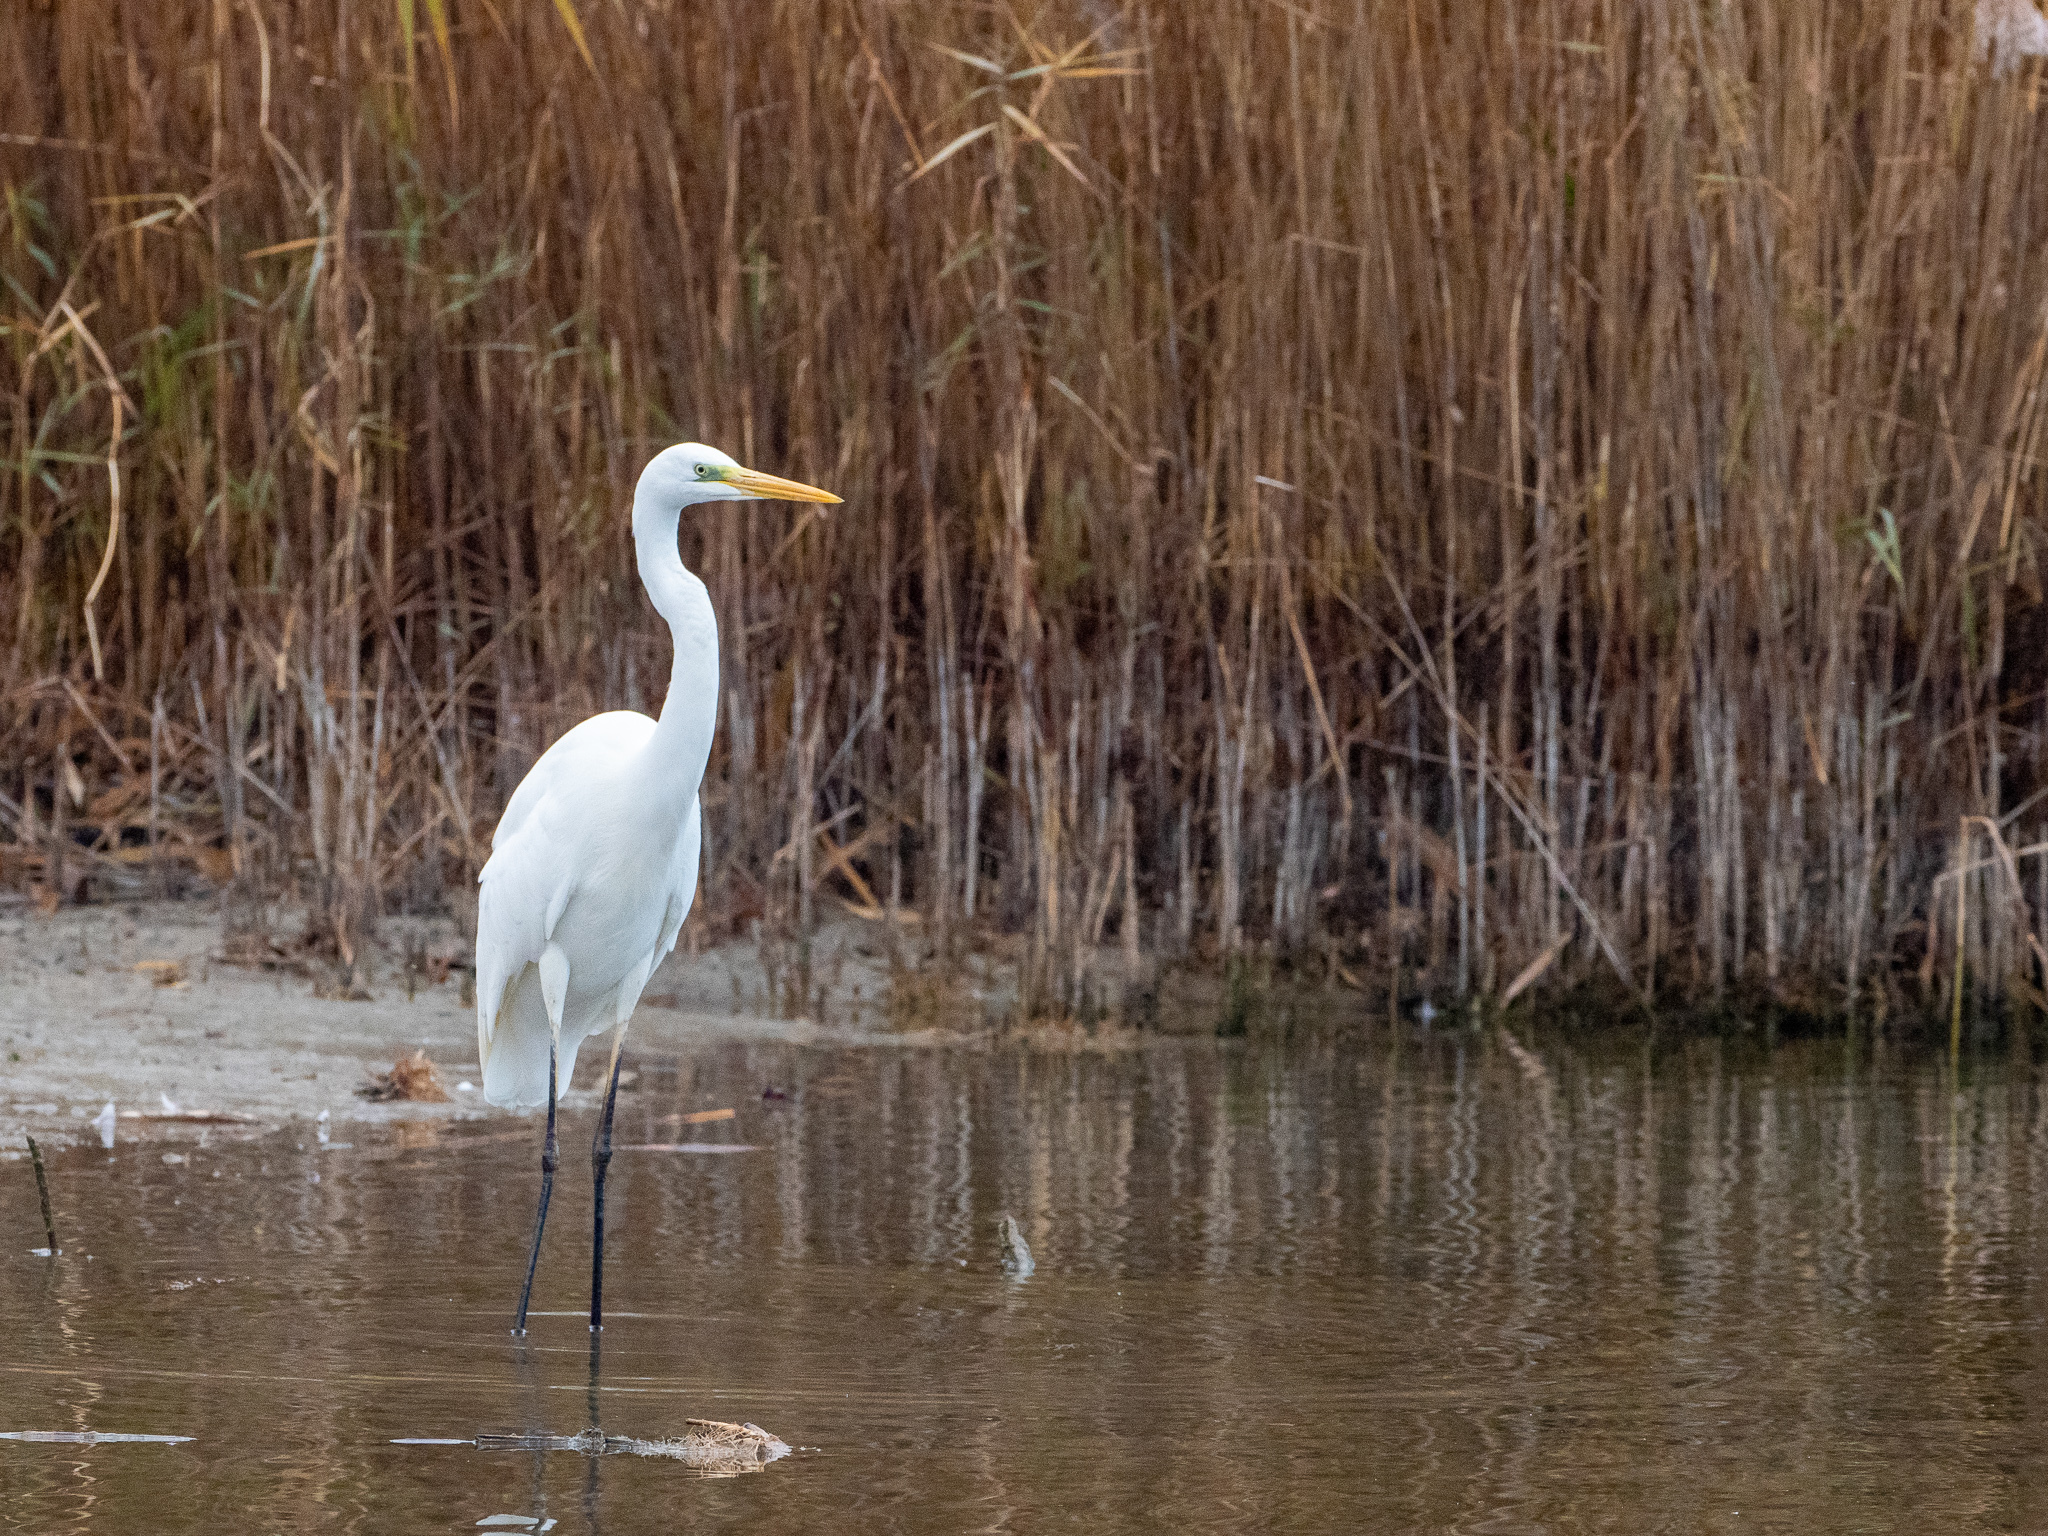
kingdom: Animalia
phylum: Chordata
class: Aves
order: Pelecaniformes
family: Ardeidae
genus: Ardea
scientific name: Ardea alba
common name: Great egret
